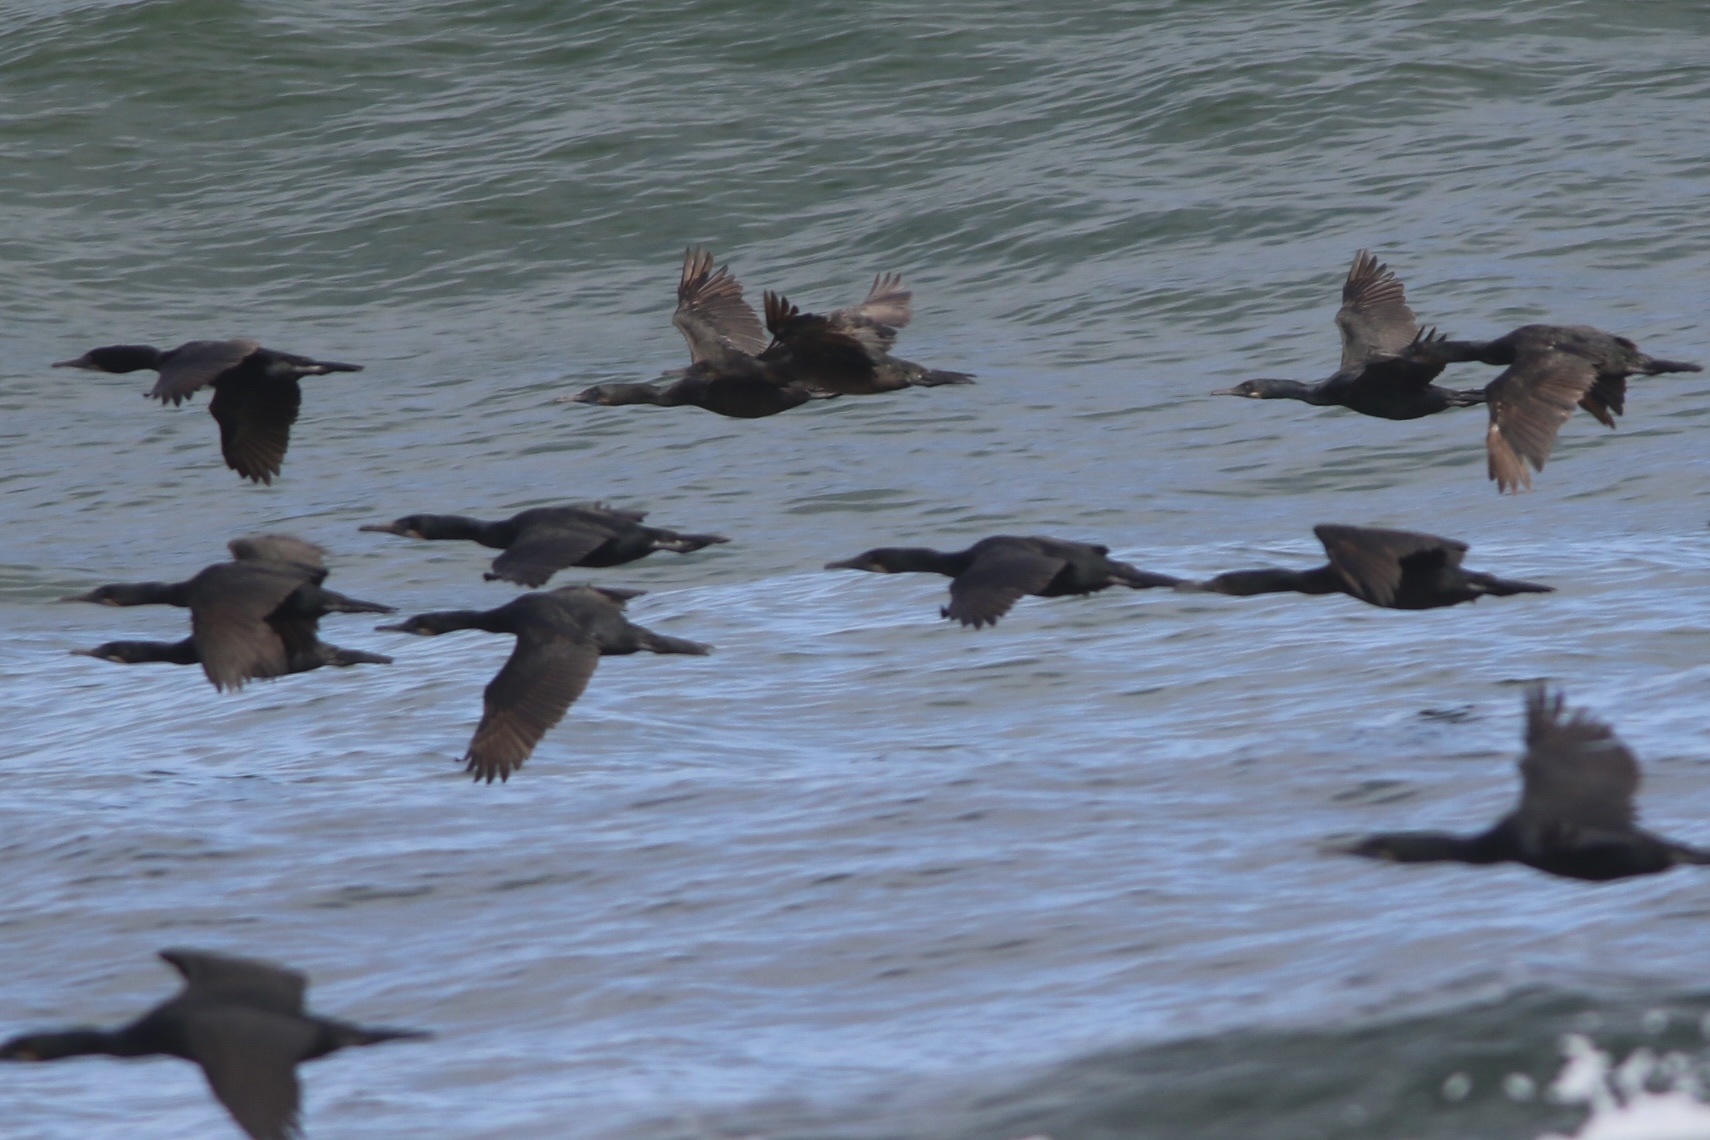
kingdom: Animalia
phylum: Chordata
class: Aves
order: Suliformes
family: Phalacrocoracidae
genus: Urile
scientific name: Urile penicillatus
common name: Brandt's cormorant
